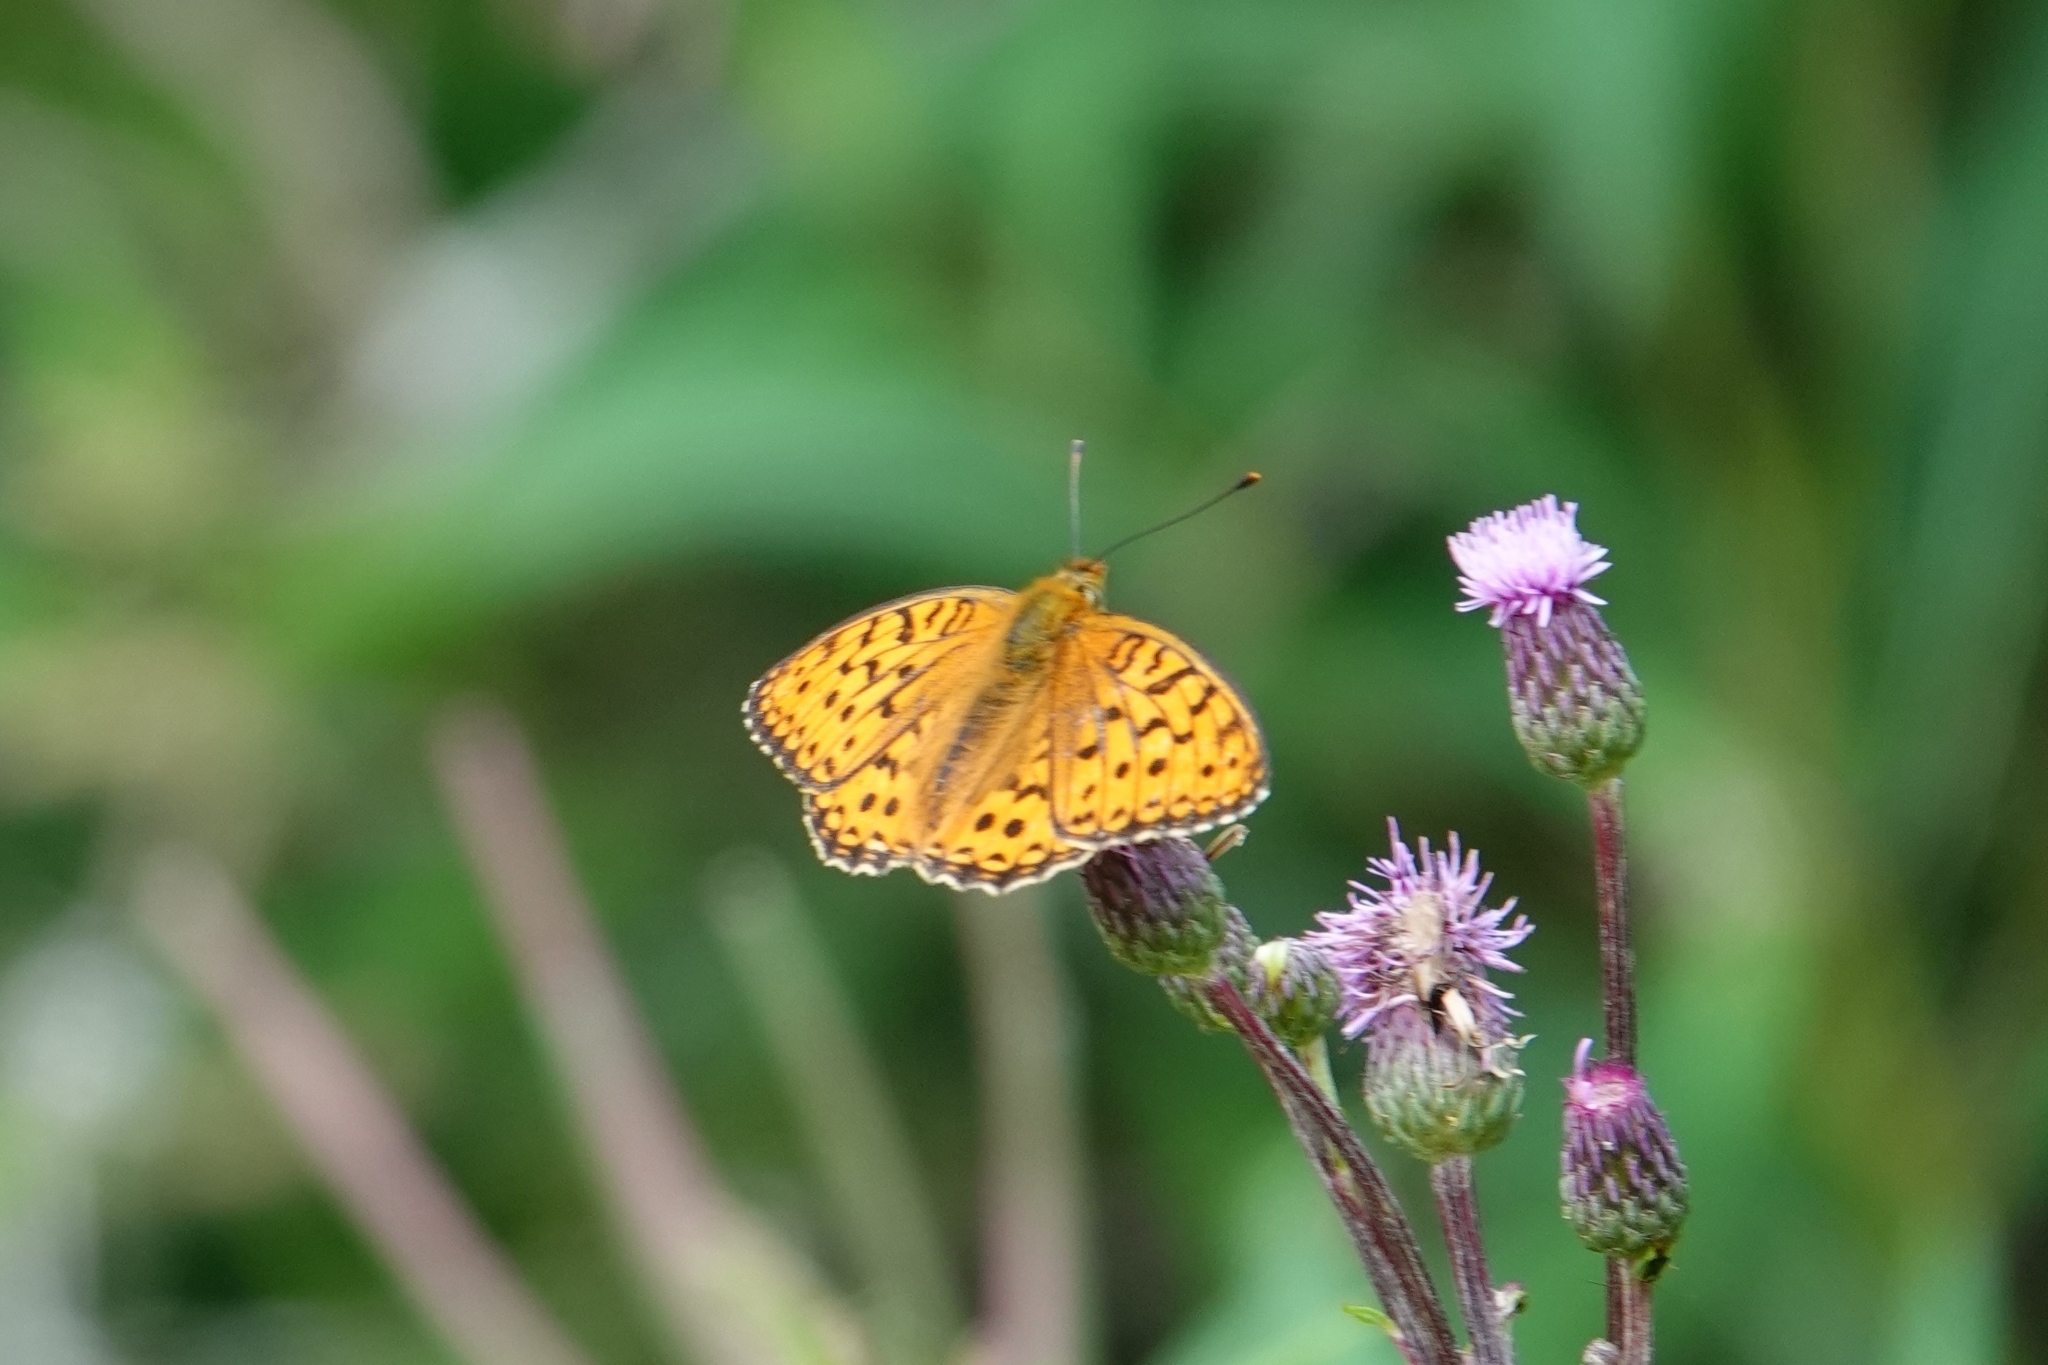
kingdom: Animalia
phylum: Arthropoda
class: Insecta
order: Lepidoptera
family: Nymphalidae
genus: Fabriciana
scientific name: Fabriciana adippe
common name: High brown fritillary
